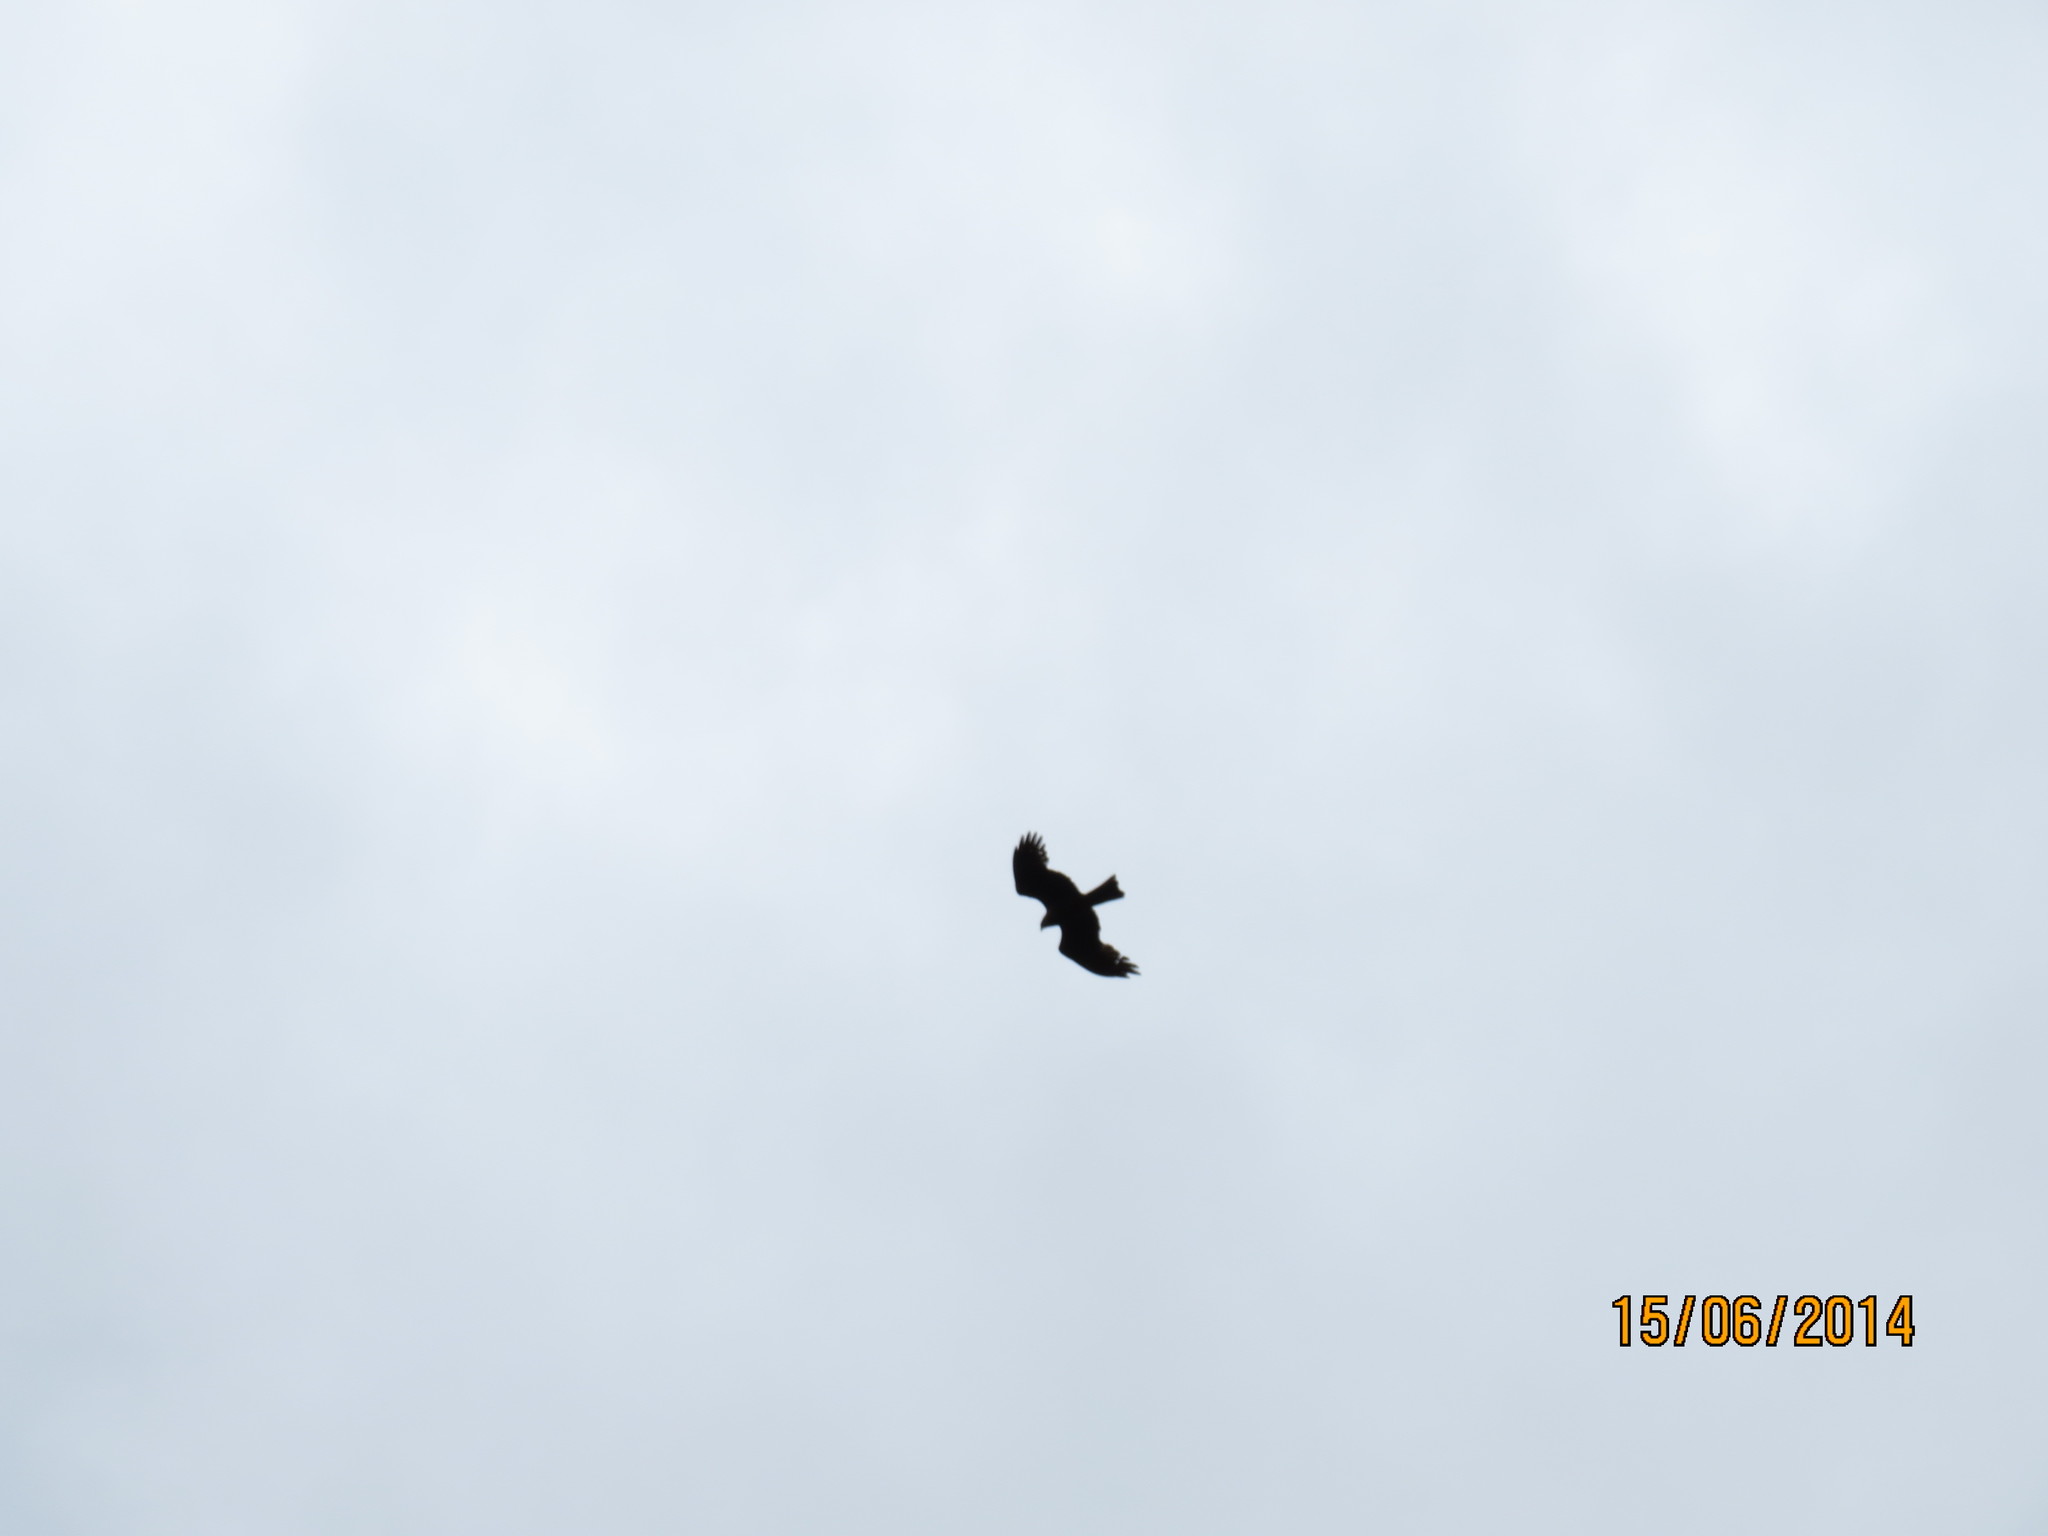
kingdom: Animalia
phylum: Chordata
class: Aves
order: Accipitriformes
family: Accipitridae
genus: Milvus
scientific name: Milvus migrans
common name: Black kite
